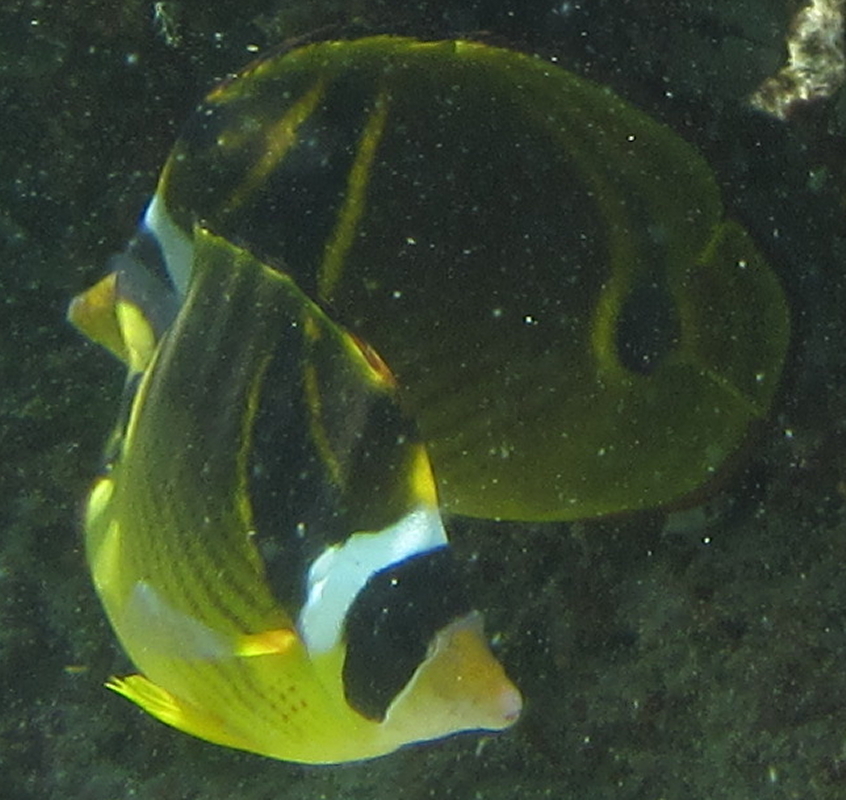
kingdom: Animalia
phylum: Chordata
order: Perciformes
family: Chaetodontidae
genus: Chaetodon
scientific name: Chaetodon lunula
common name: Raccoon butterflyfish
